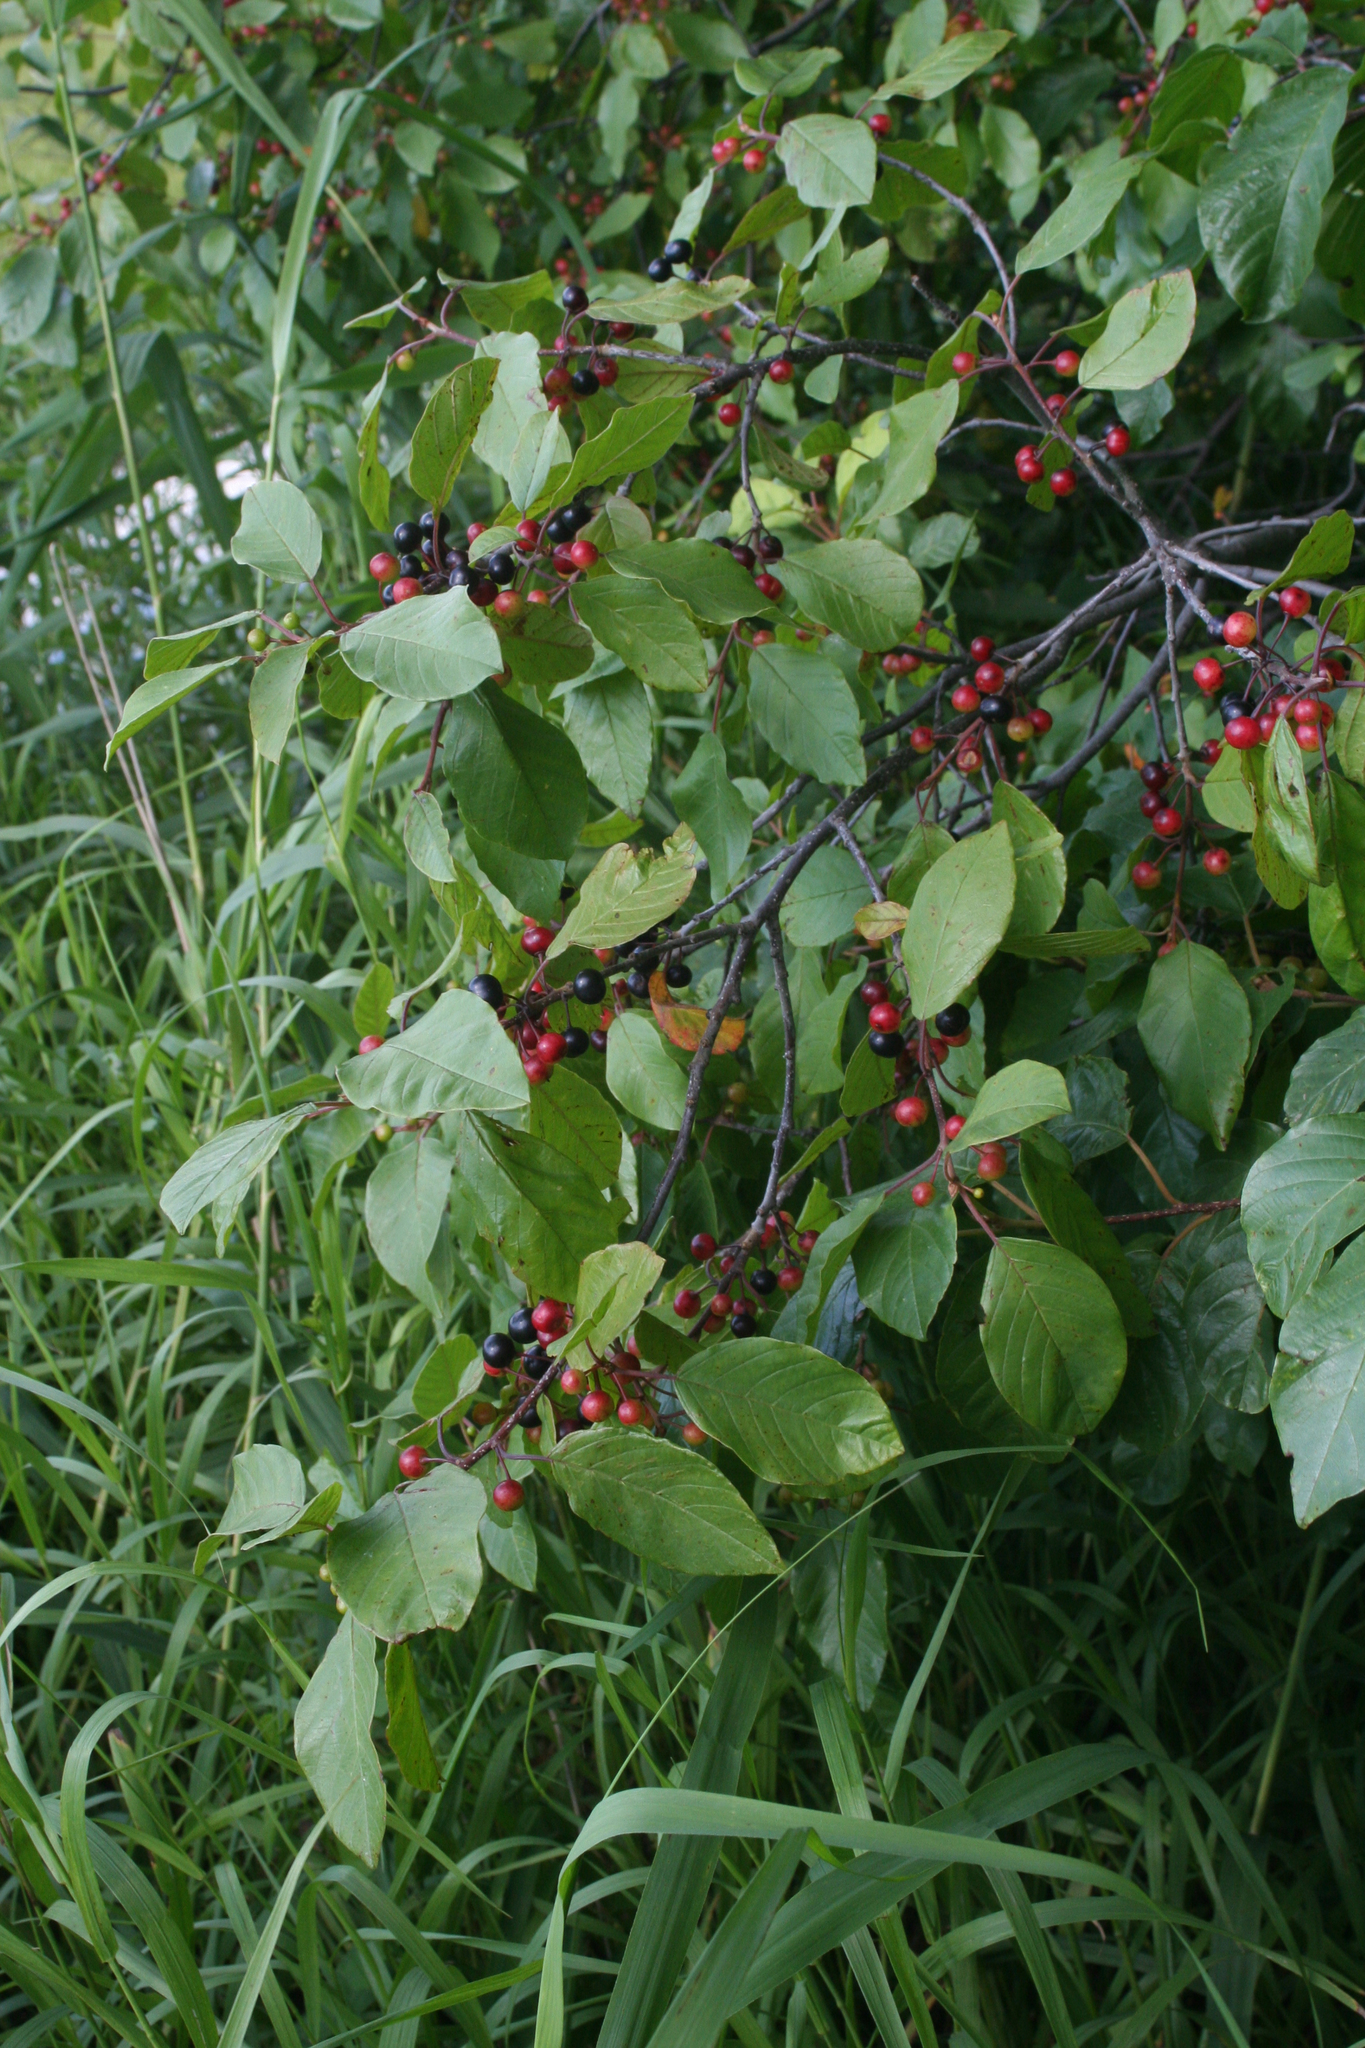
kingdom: Plantae
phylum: Tracheophyta
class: Magnoliopsida
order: Rosales
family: Rhamnaceae
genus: Frangula
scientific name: Frangula alnus
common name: Alder buckthorn
